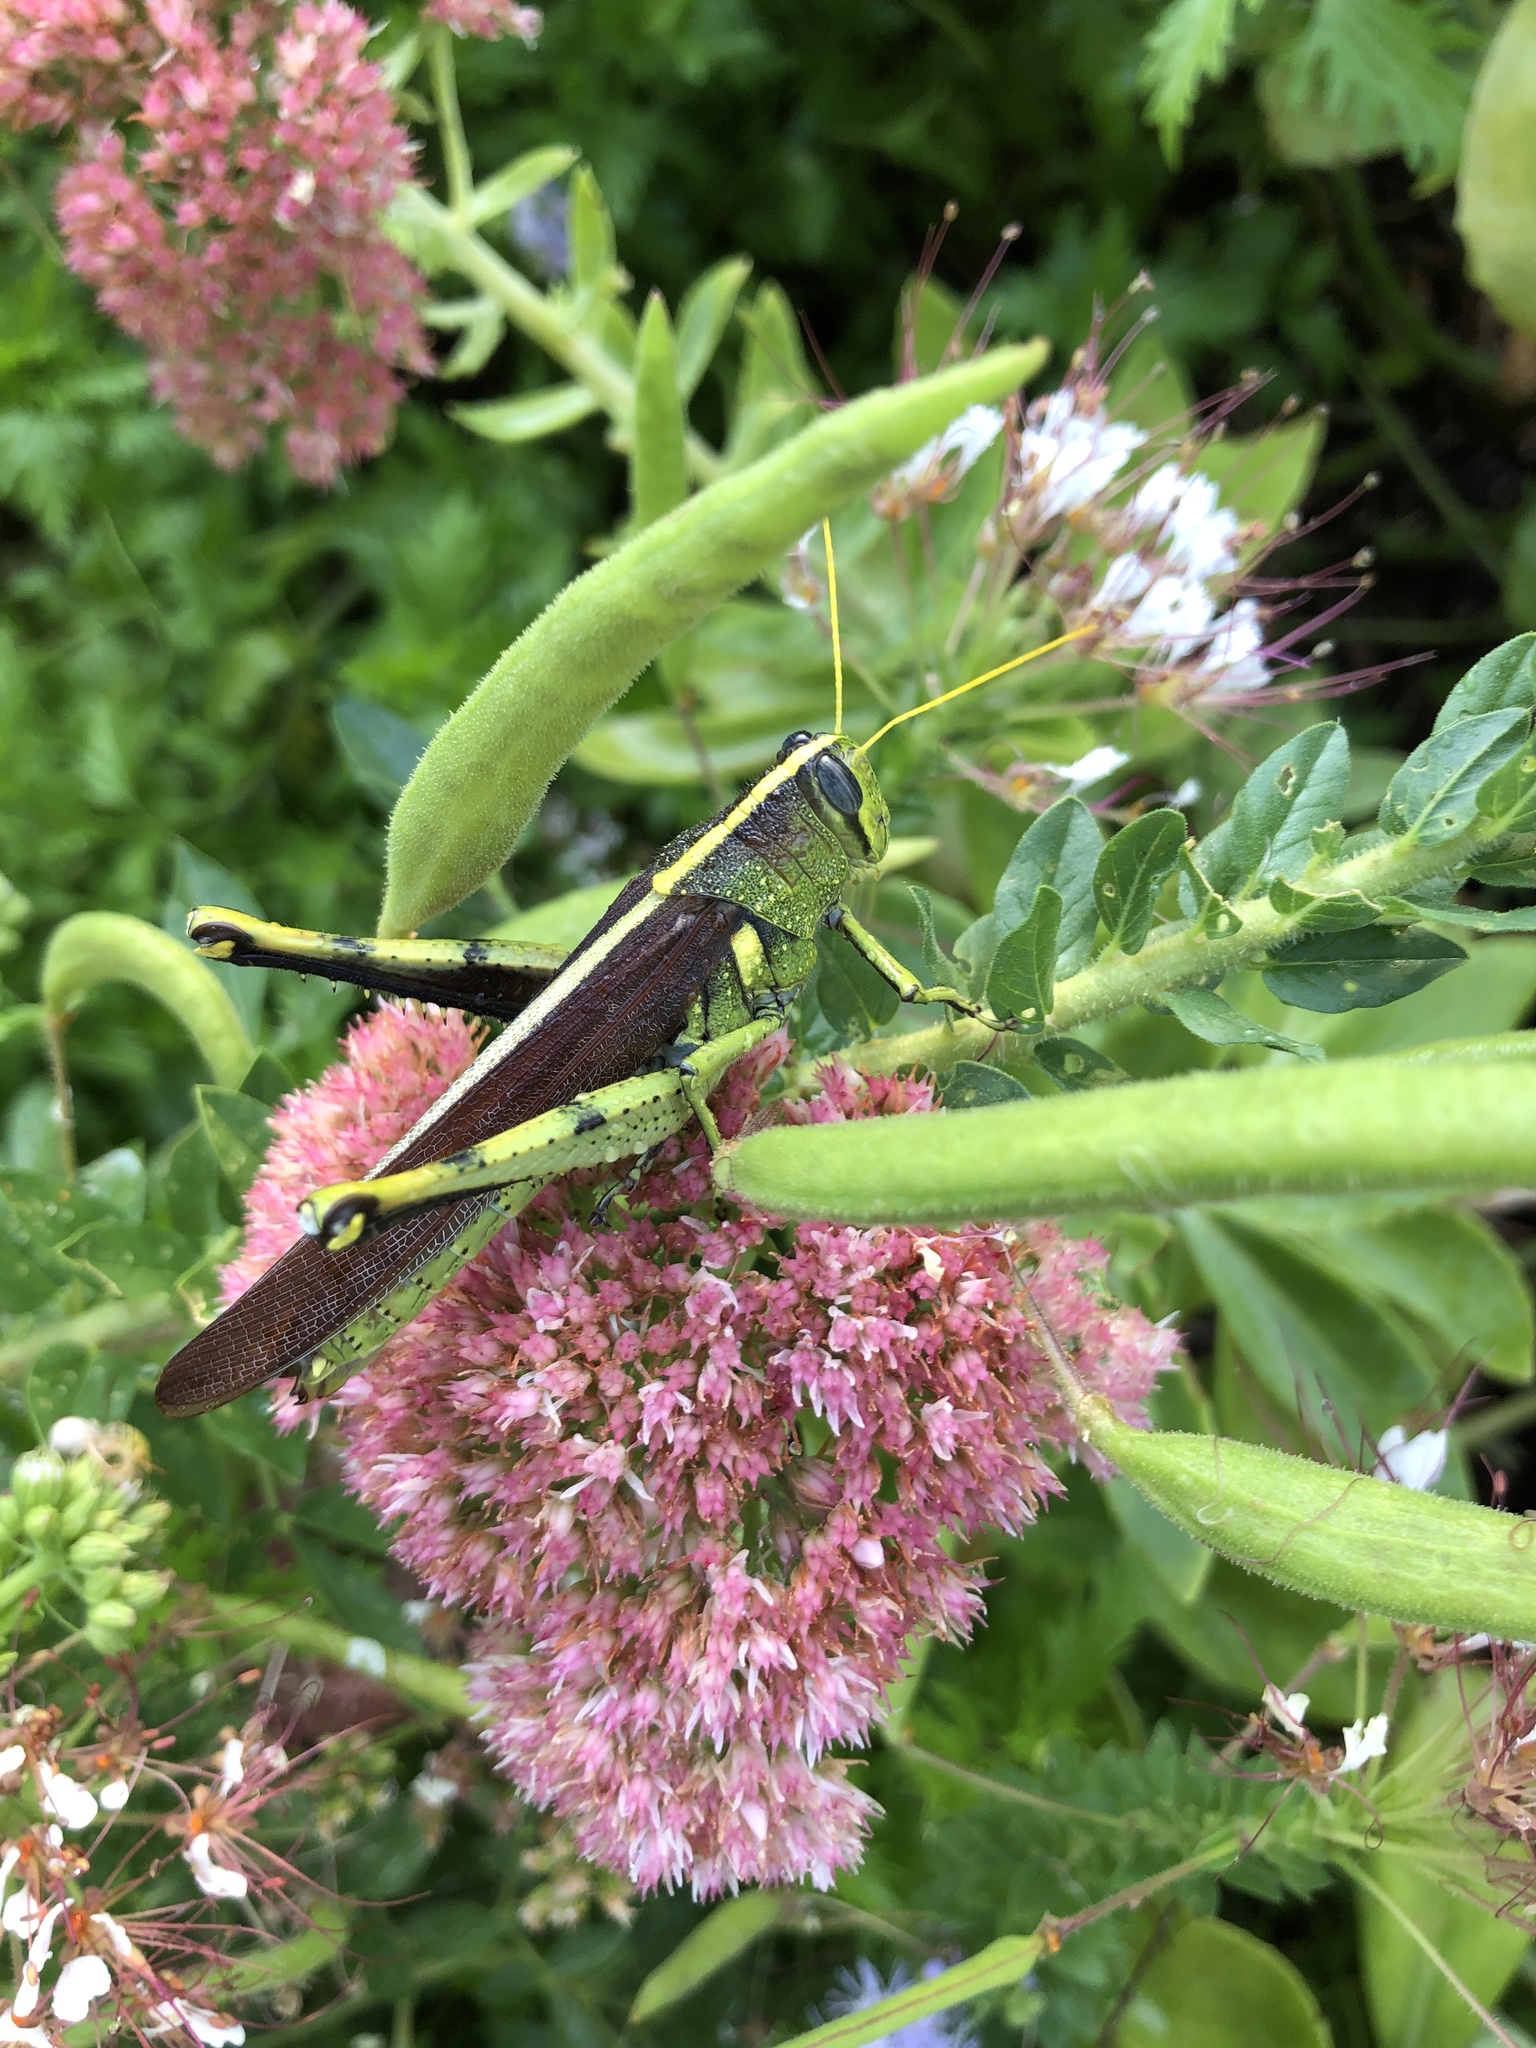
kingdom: Animalia
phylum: Arthropoda
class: Insecta
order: Orthoptera
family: Acrididae
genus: Schistocerca
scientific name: Schistocerca obscura
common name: Obscure bird grasshopper
